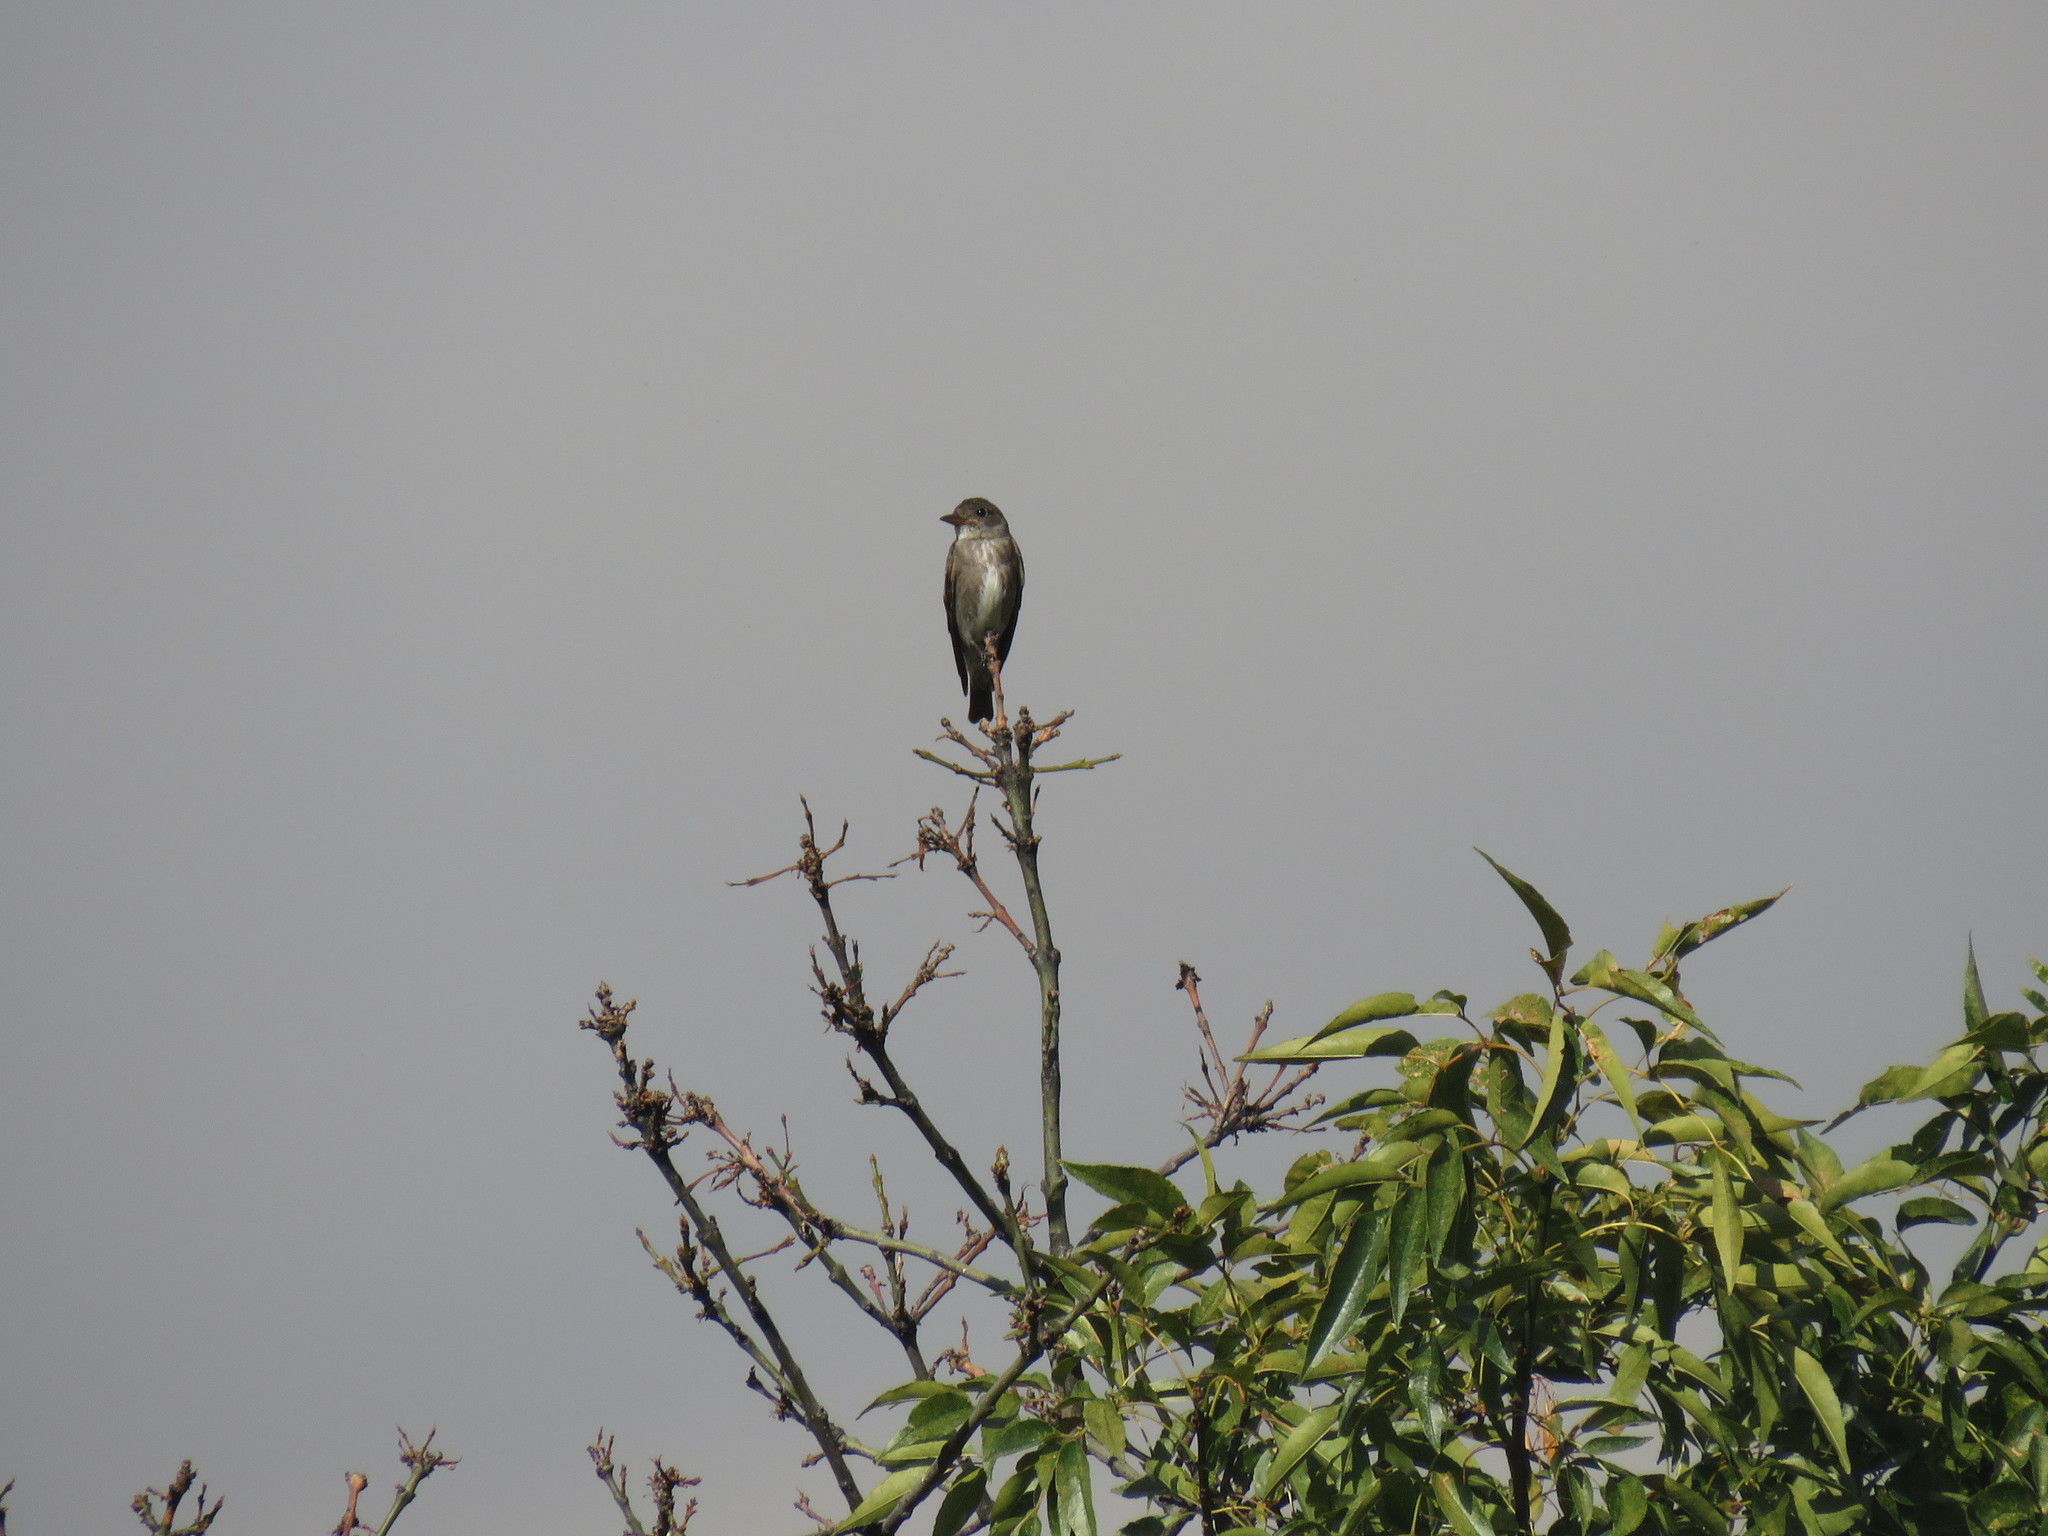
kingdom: Animalia
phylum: Chordata
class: Aves
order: Passeriformes
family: Tyrannidae
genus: Contopus
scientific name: Contopus cooperi
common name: Olive-sided flycatcher
